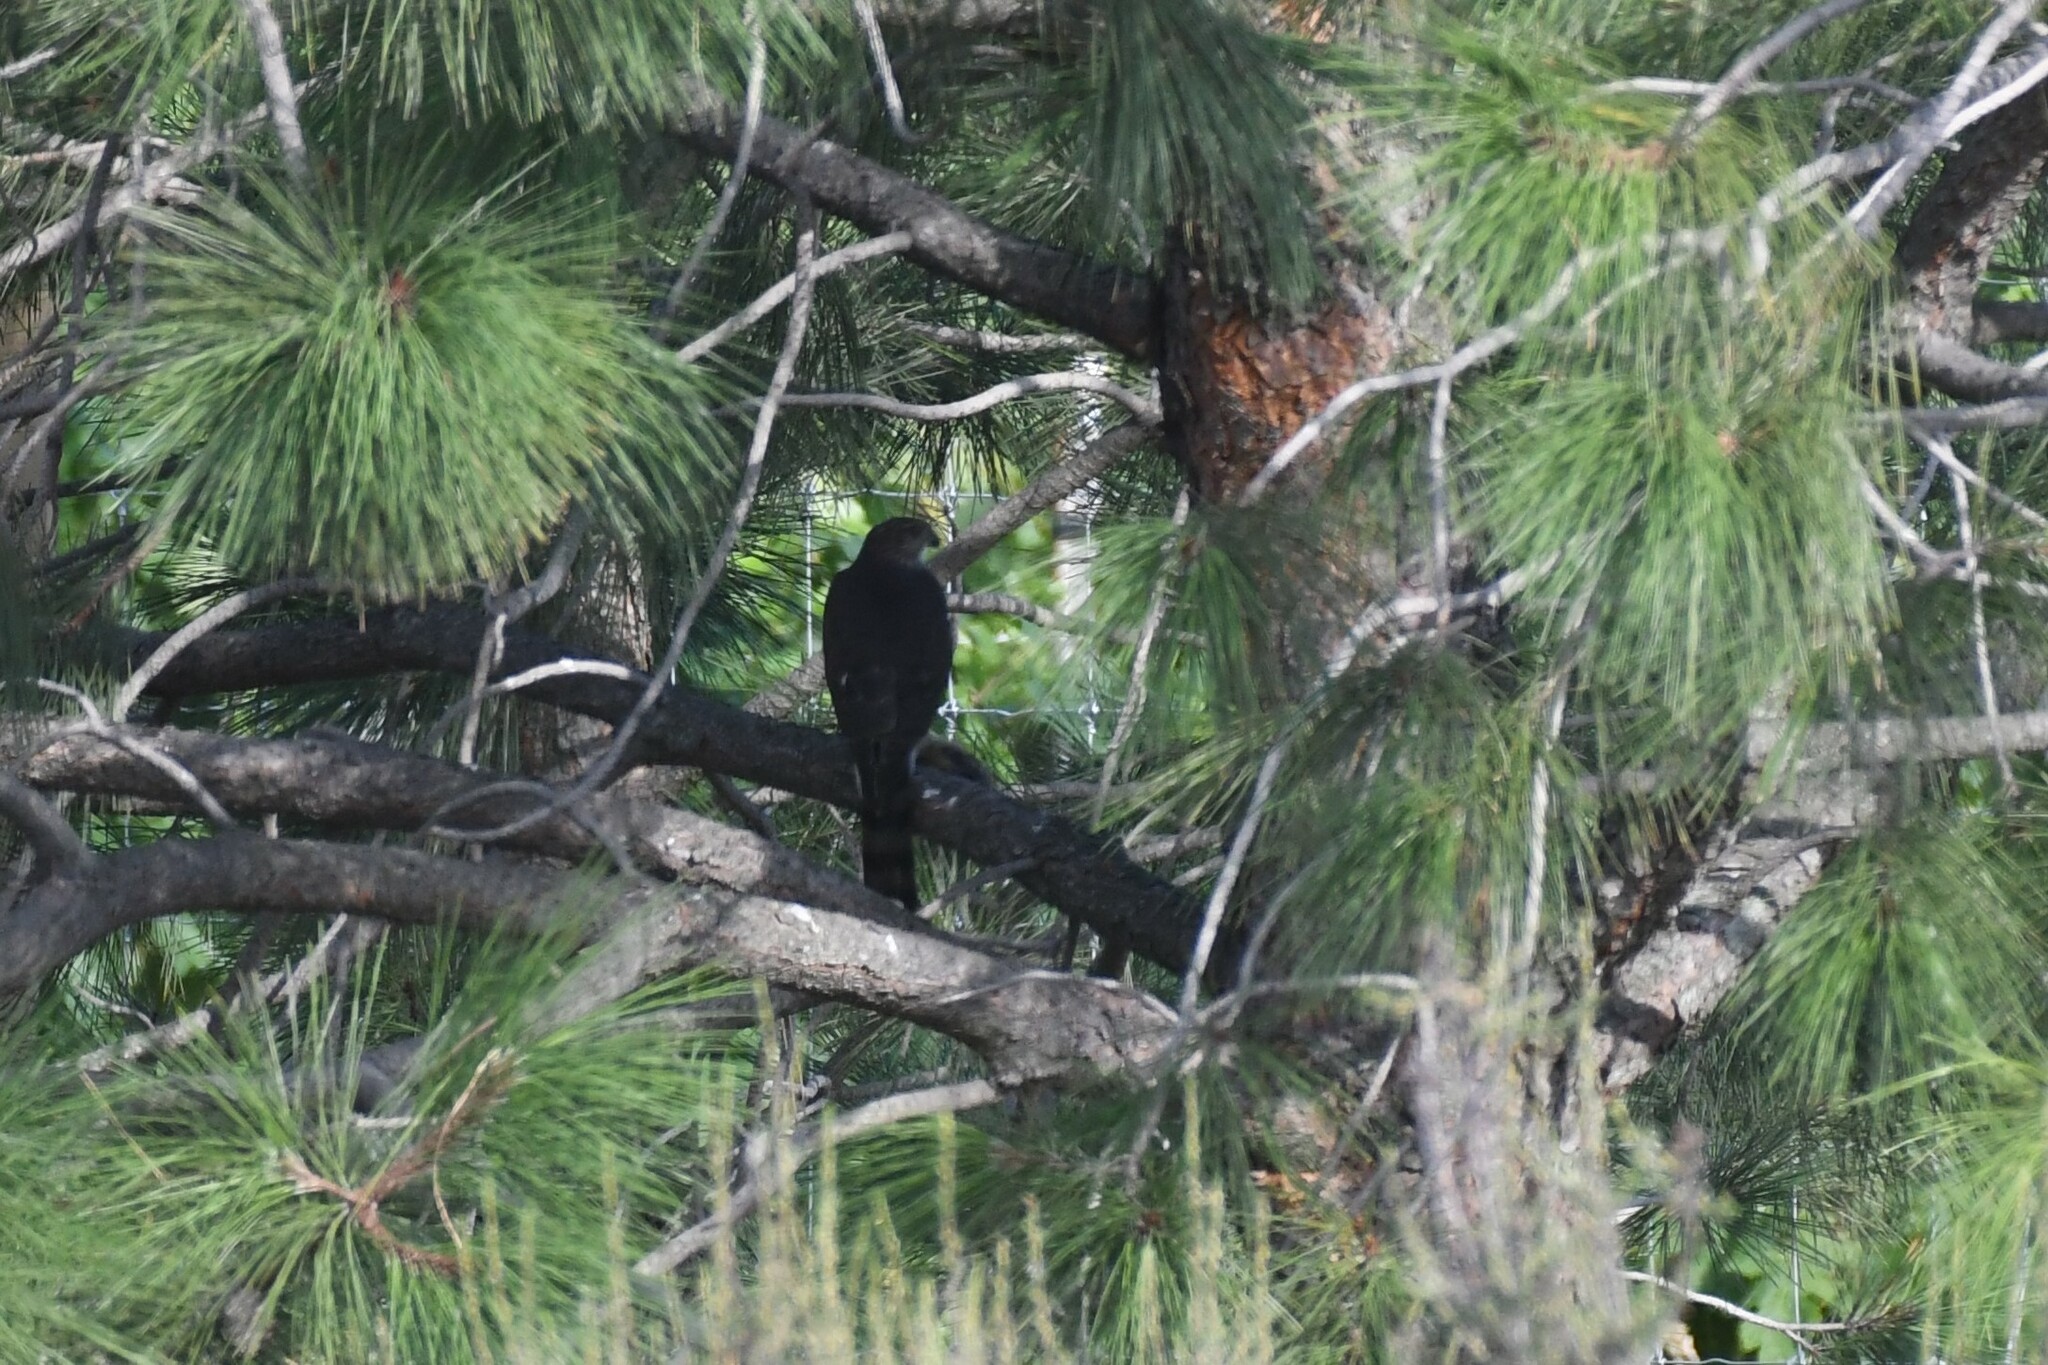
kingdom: Animalia
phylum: Chordata
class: Aves
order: Accipitriformes
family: Accipitridae
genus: Accipiter
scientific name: Accipiter cooperii
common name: Cooper's hawk
